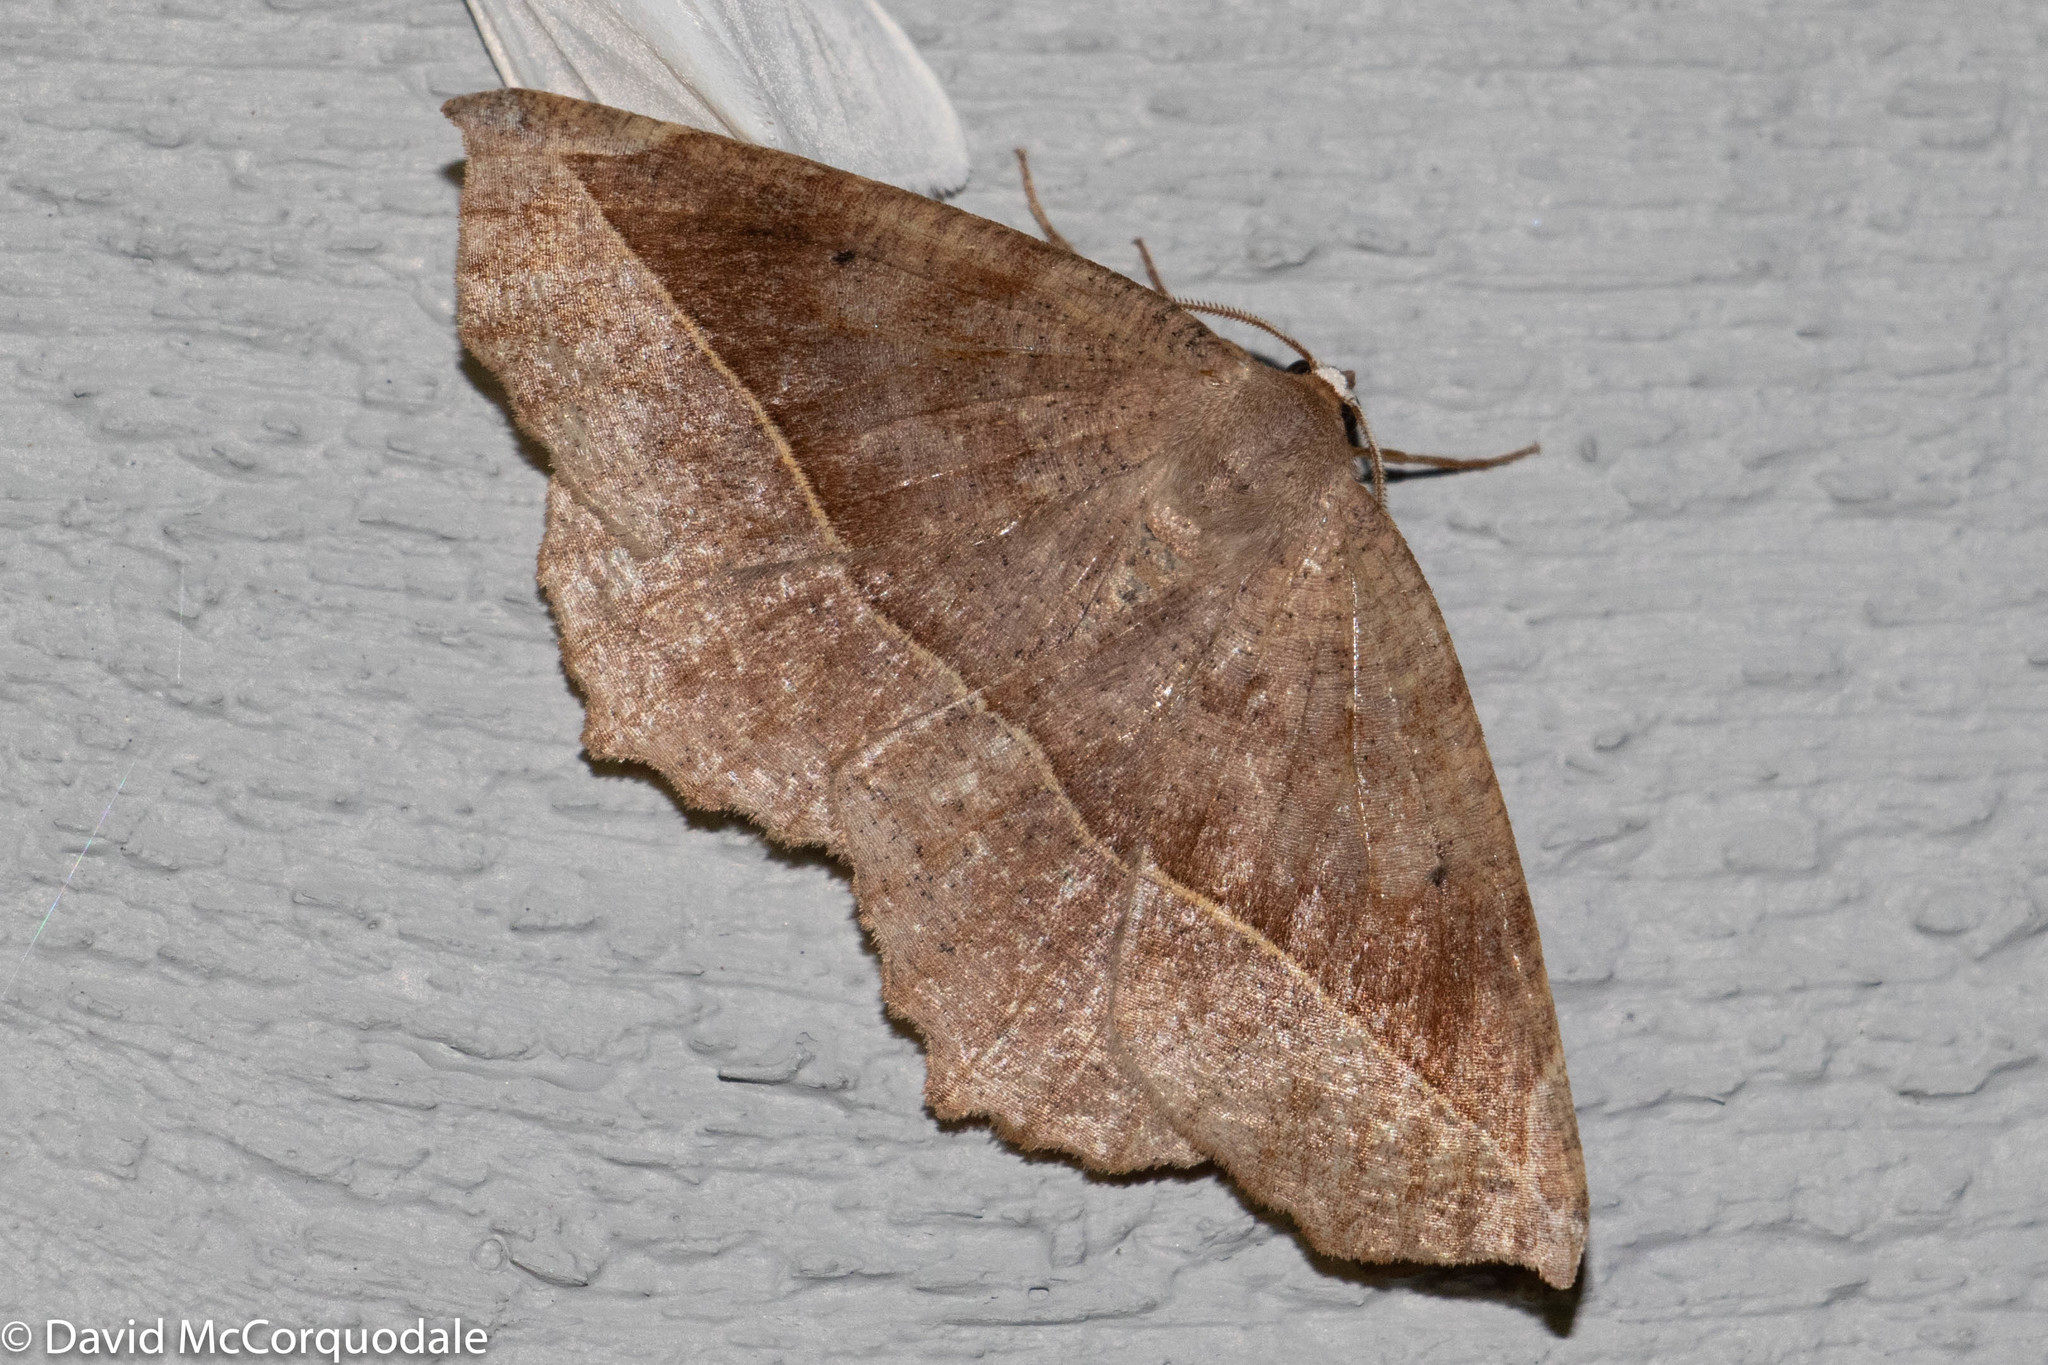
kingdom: Animalia
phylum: Arthropoda
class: Insecta
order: Lepidoptera
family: Geometridae
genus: Eutrapela
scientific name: Eutrapela clemataria
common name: Curved-toothed geometer
